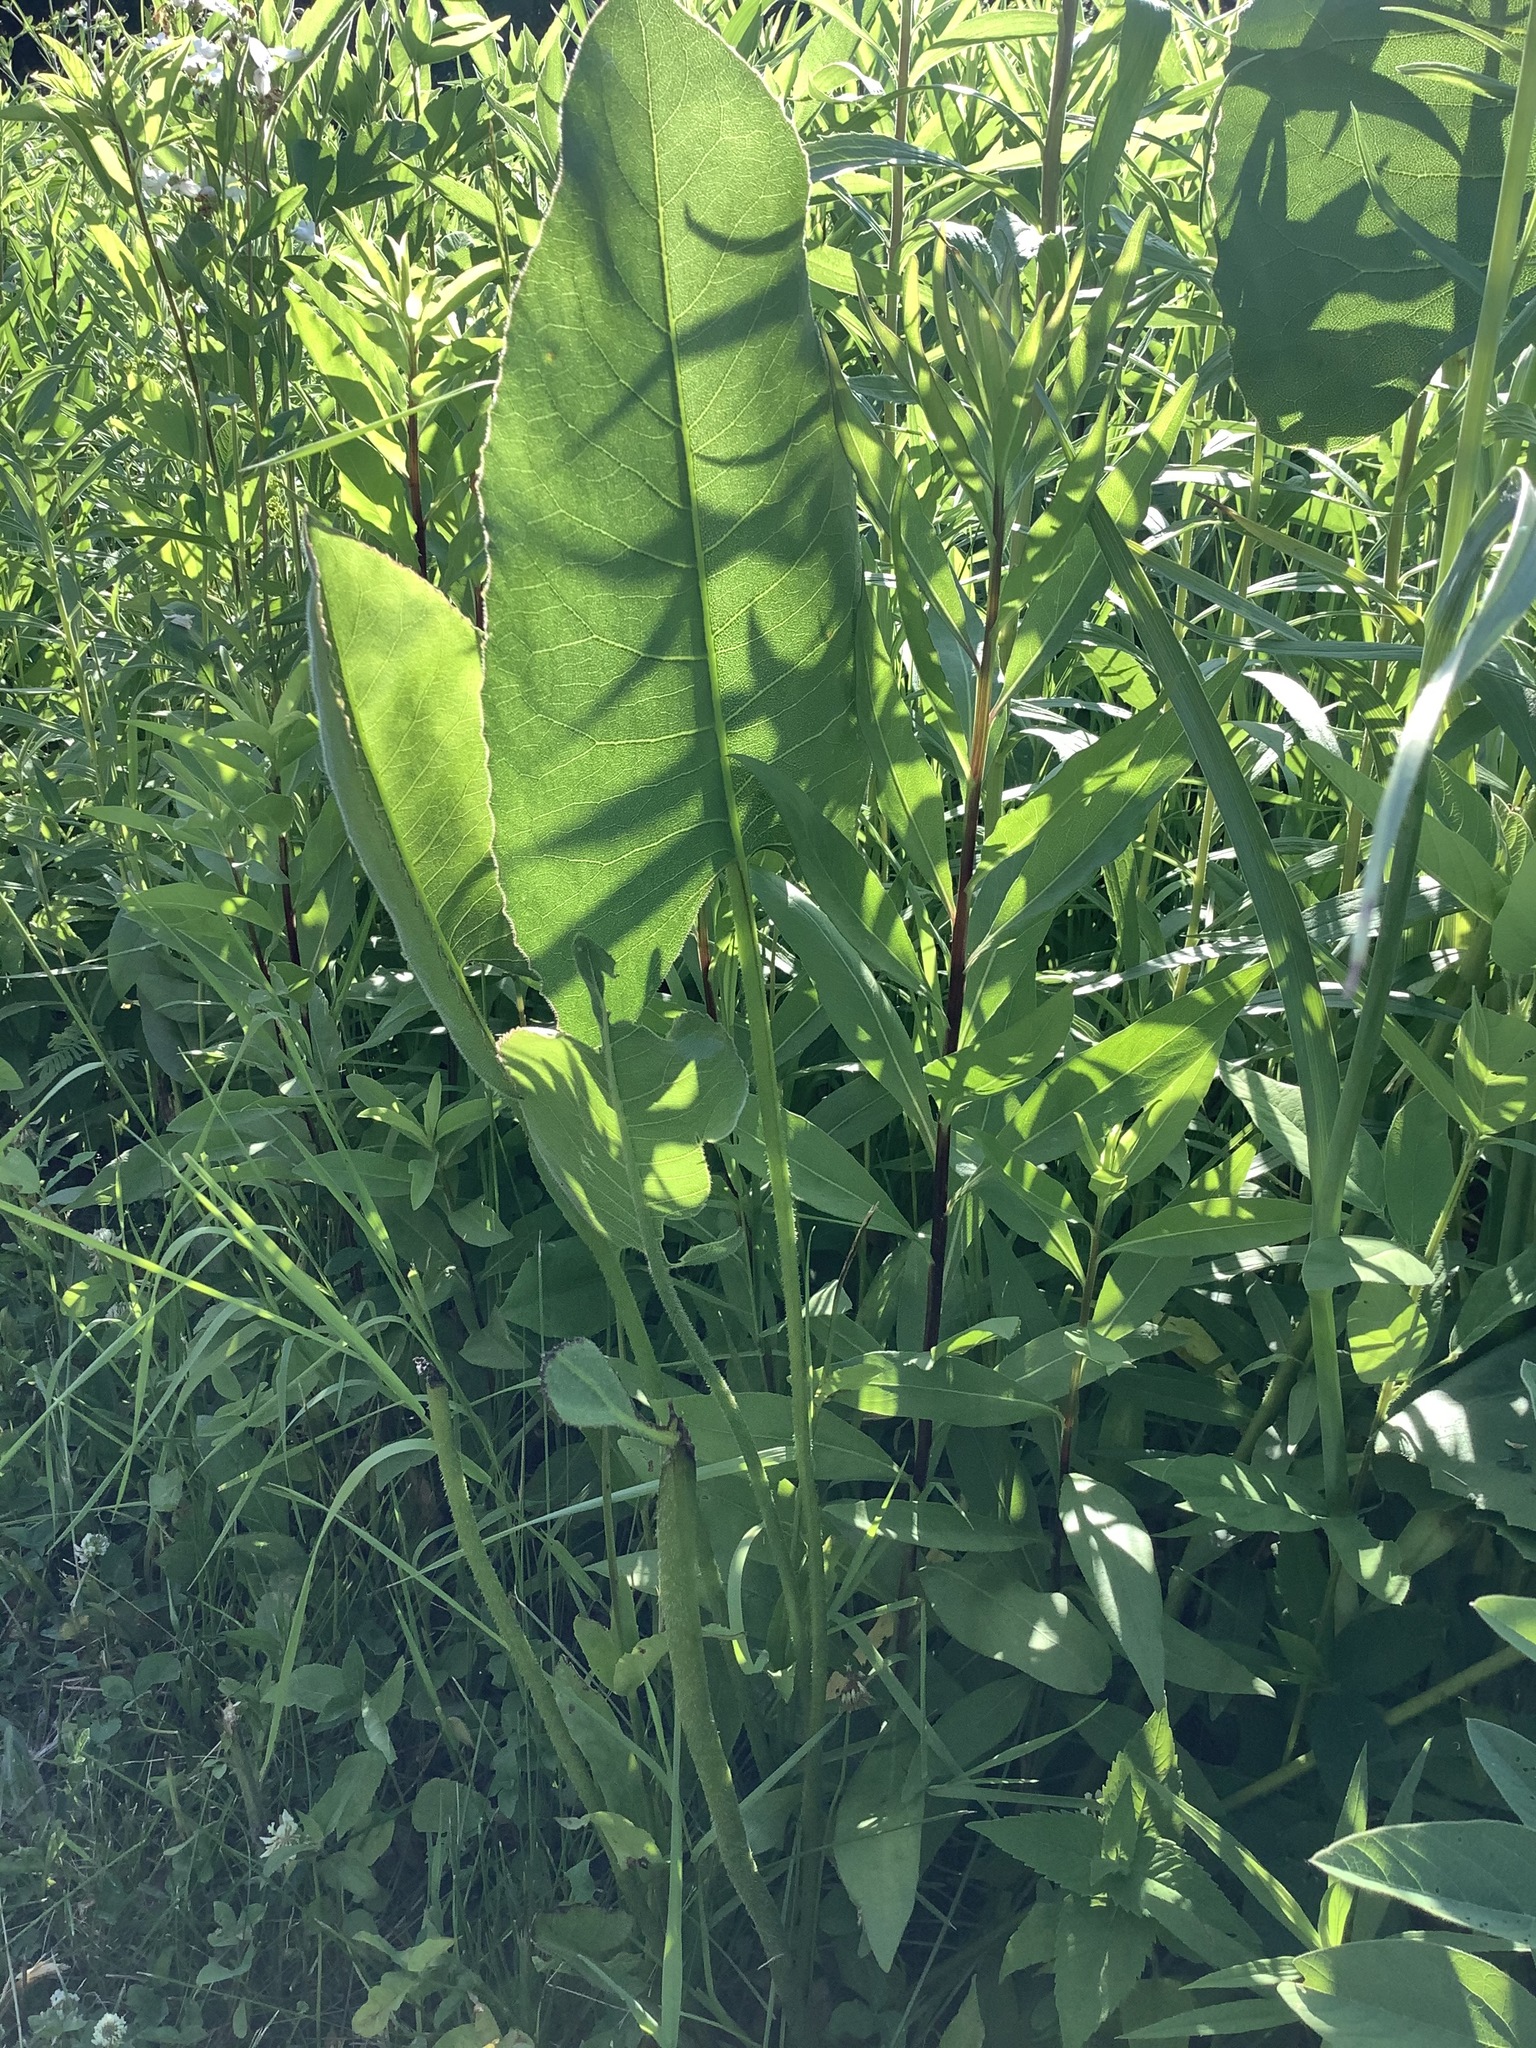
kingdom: Plantae
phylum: Tracheophyta
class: Magnoliopsida
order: Asterales
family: Asteraceae
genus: Silphium
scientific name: Silphium terebinthinaceum
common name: Basal-leaf rosinweed
